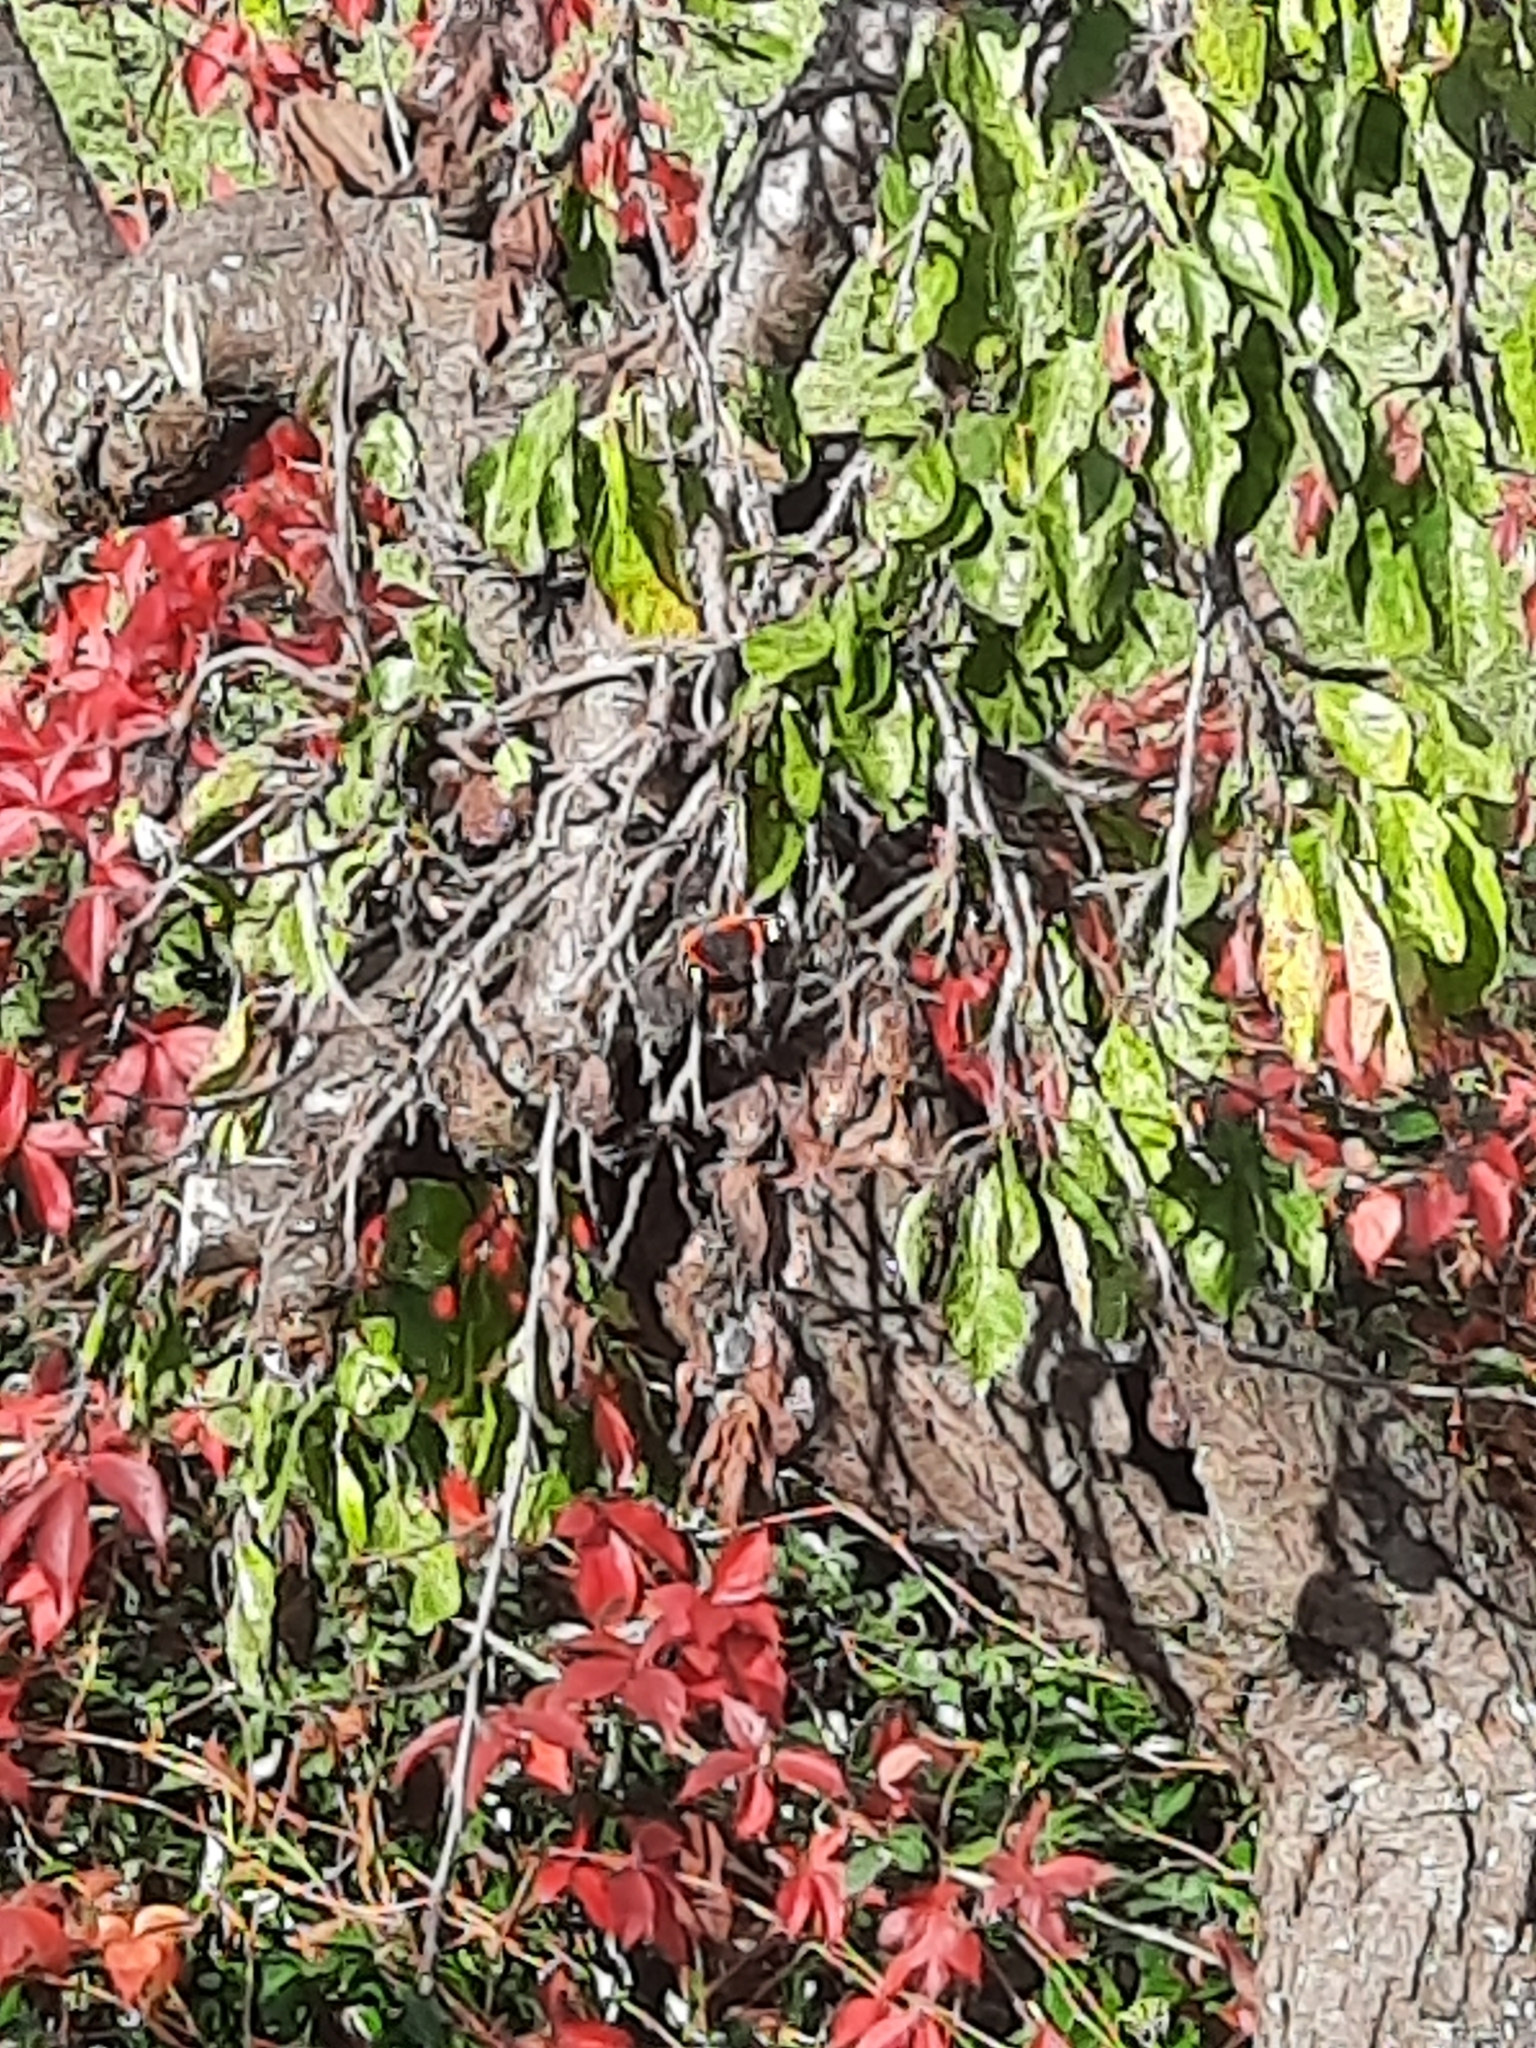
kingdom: Animalia
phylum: Arthropoda
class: Insecta
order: Lepidoptera
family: Nymphalidae
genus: Vanessa
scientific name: Vanessa atalanta
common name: Red admiral
